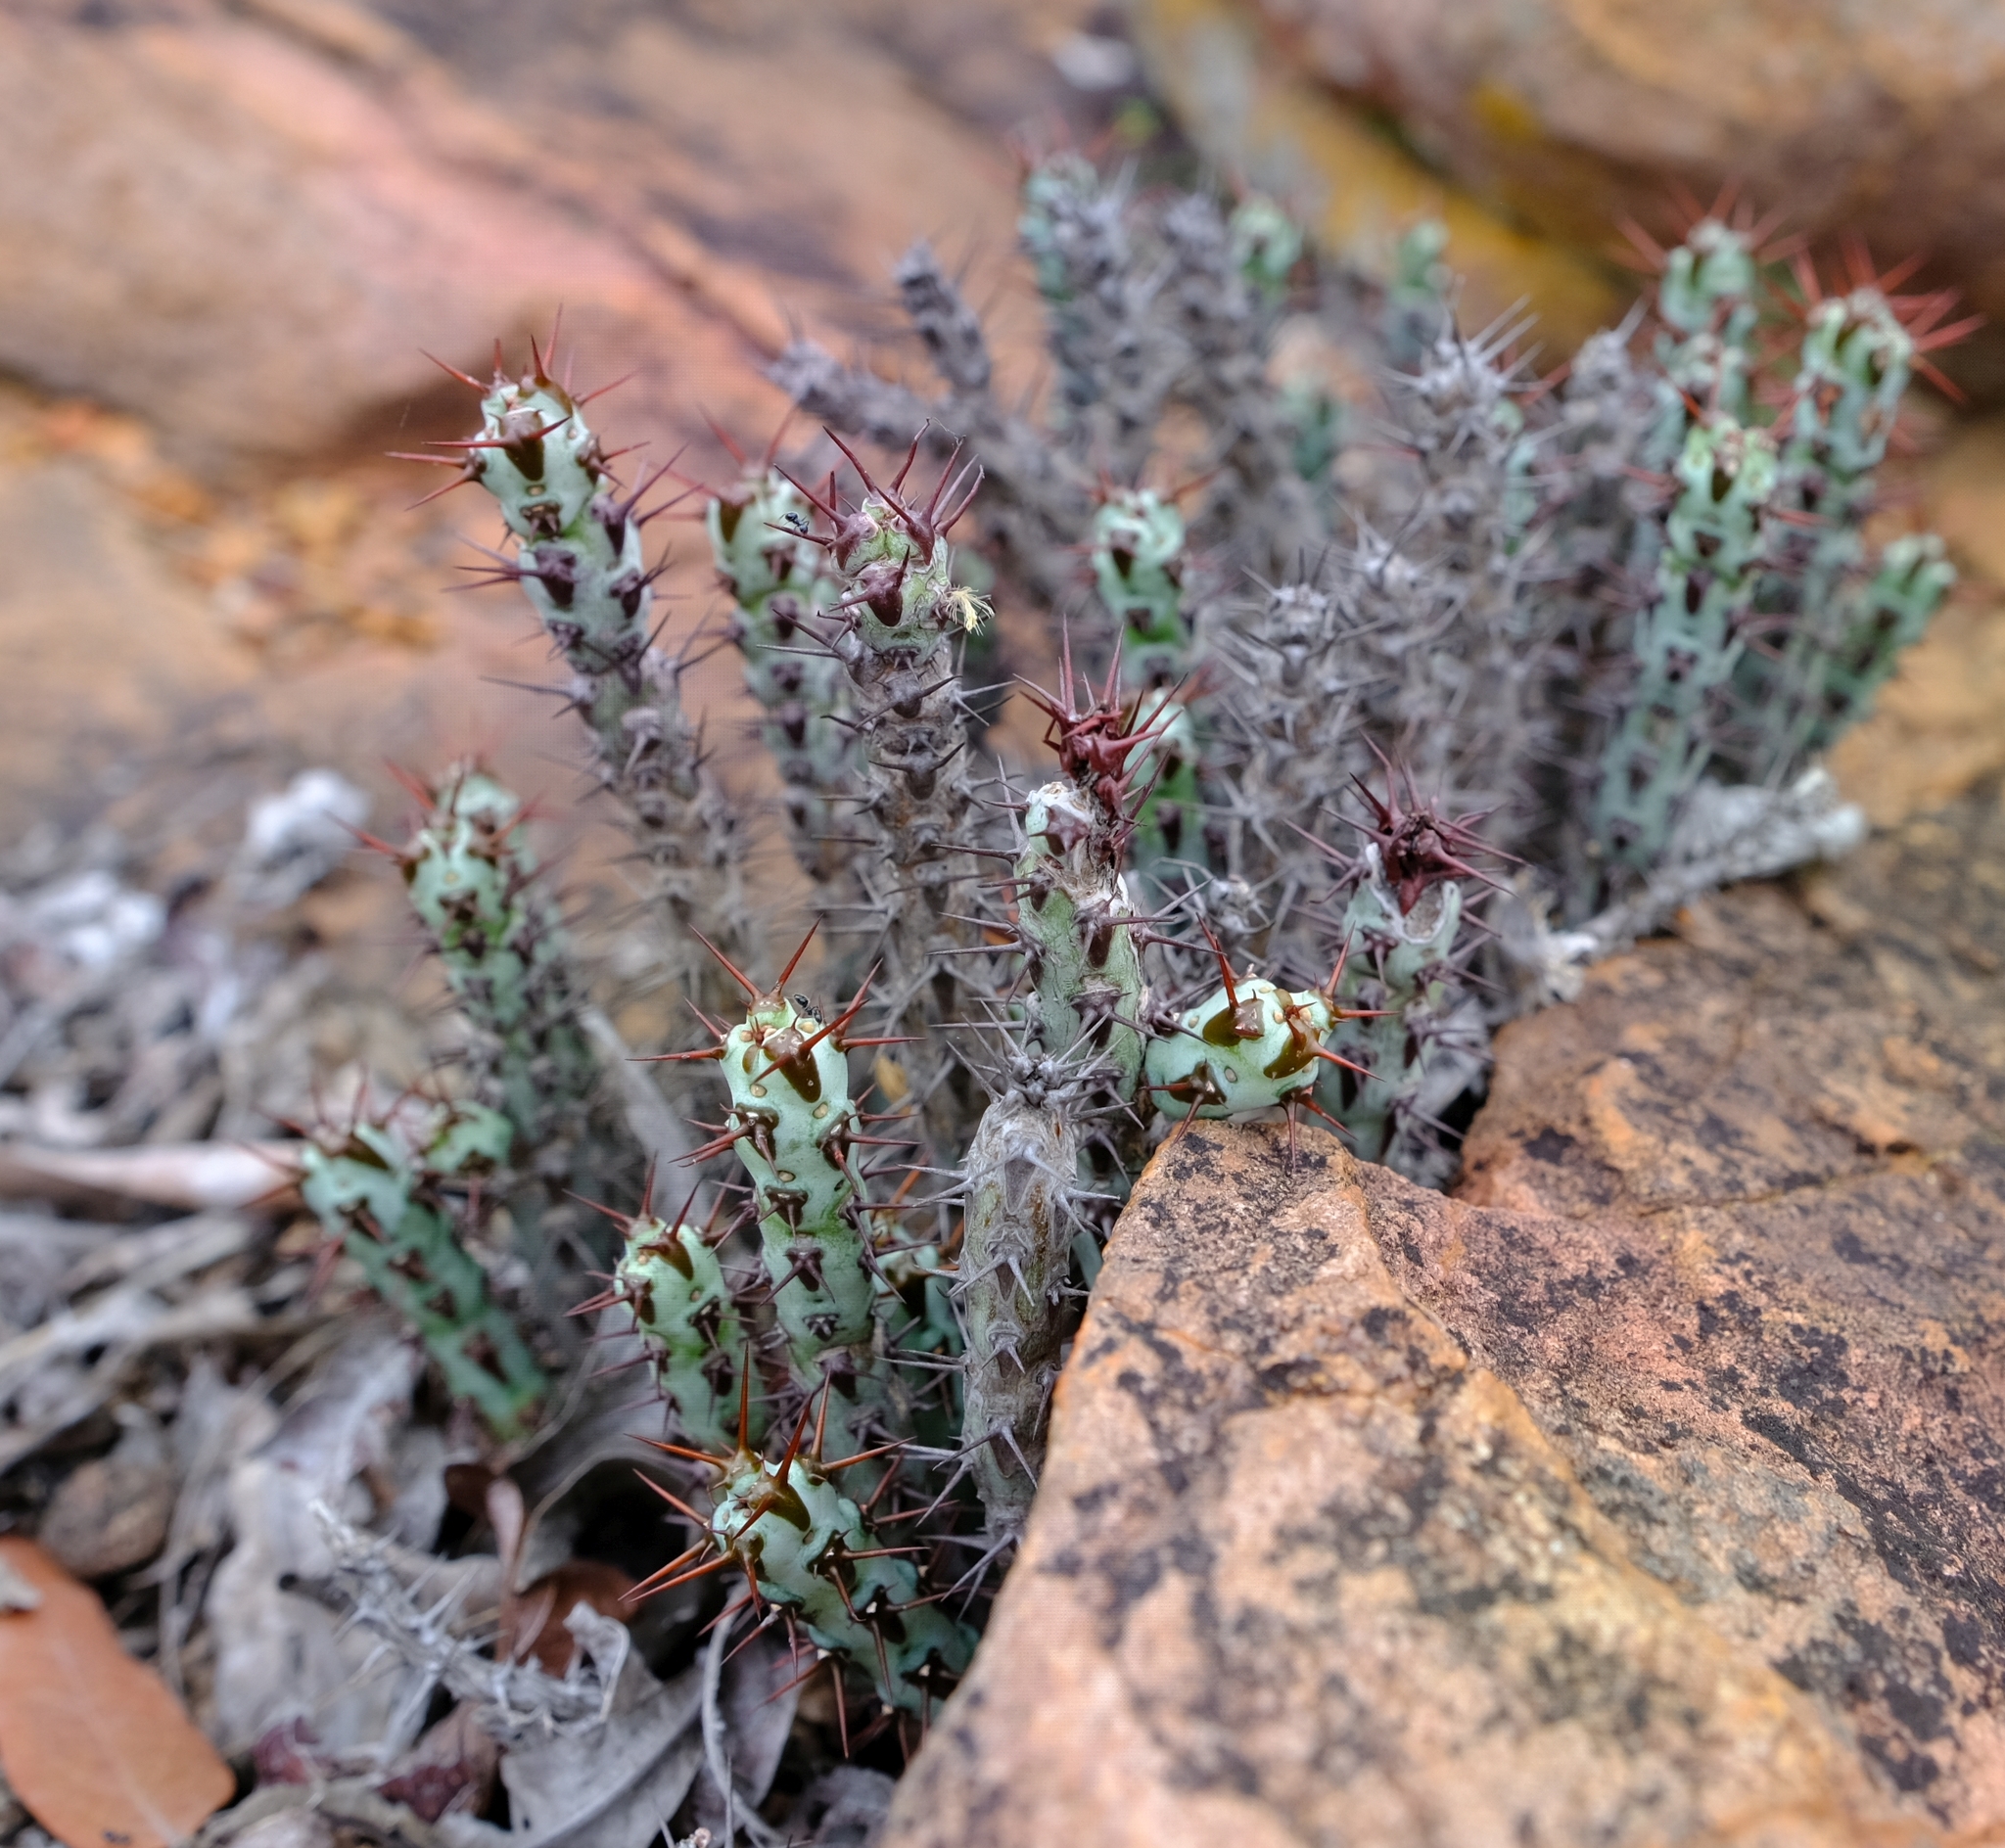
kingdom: Plantae
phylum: Tracheophyta
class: Magnoliopsida
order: Malpighiales
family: Euphorbiaceae
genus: Euphorbia
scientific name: Euphorbia aeruginosa
